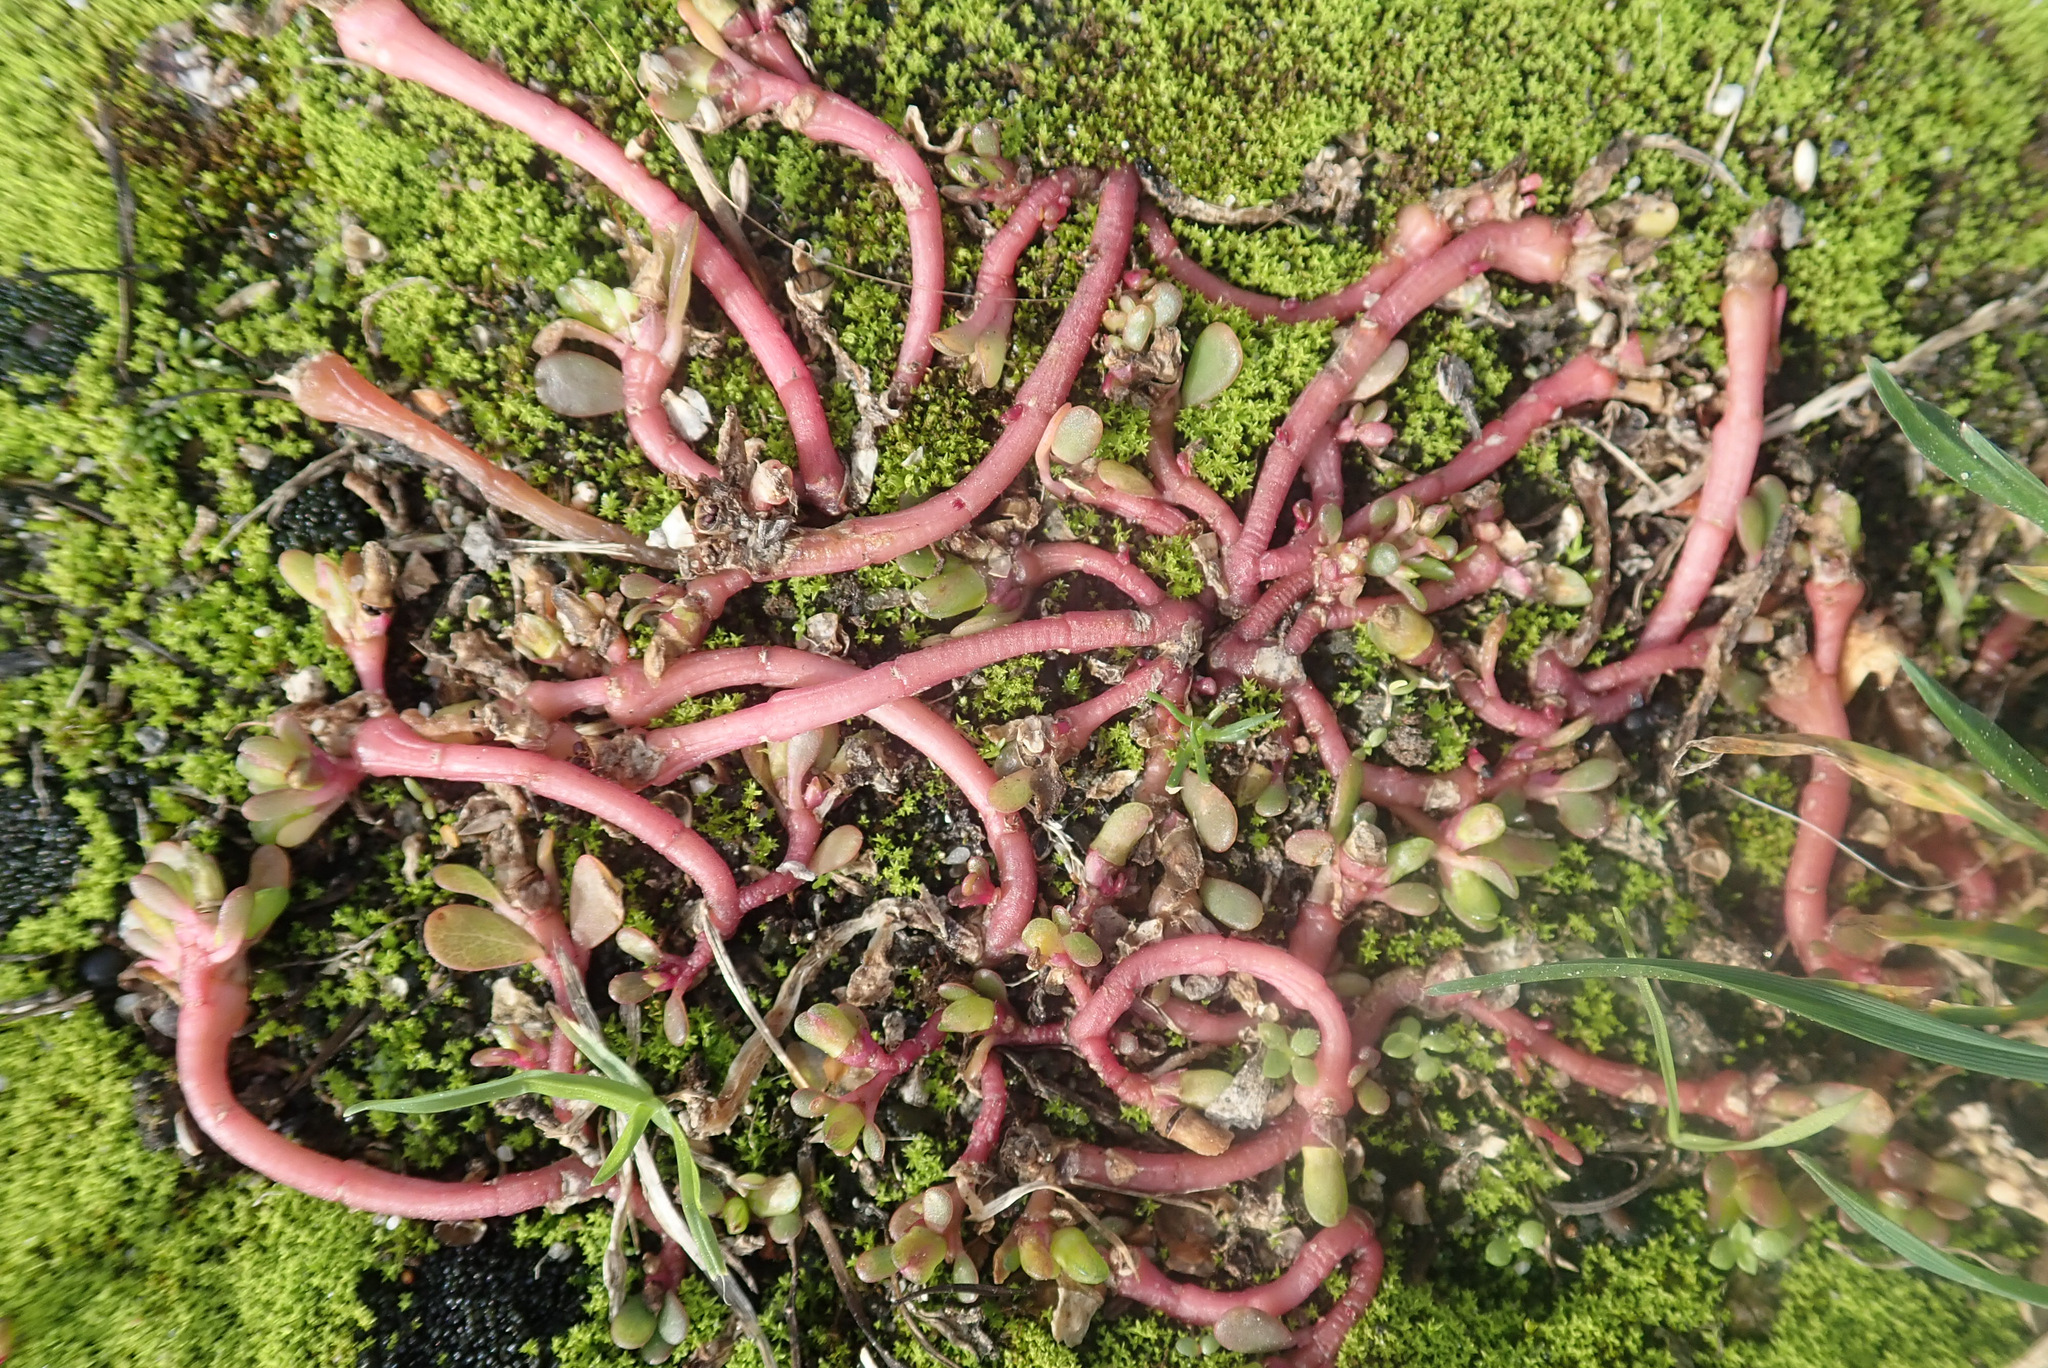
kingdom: Plantae
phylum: Tracheophyta
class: Magnoliopsida
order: Caryophyllales
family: Portulacaceae
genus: Portulaca
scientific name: Portulaca oleracea
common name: Common purslane
